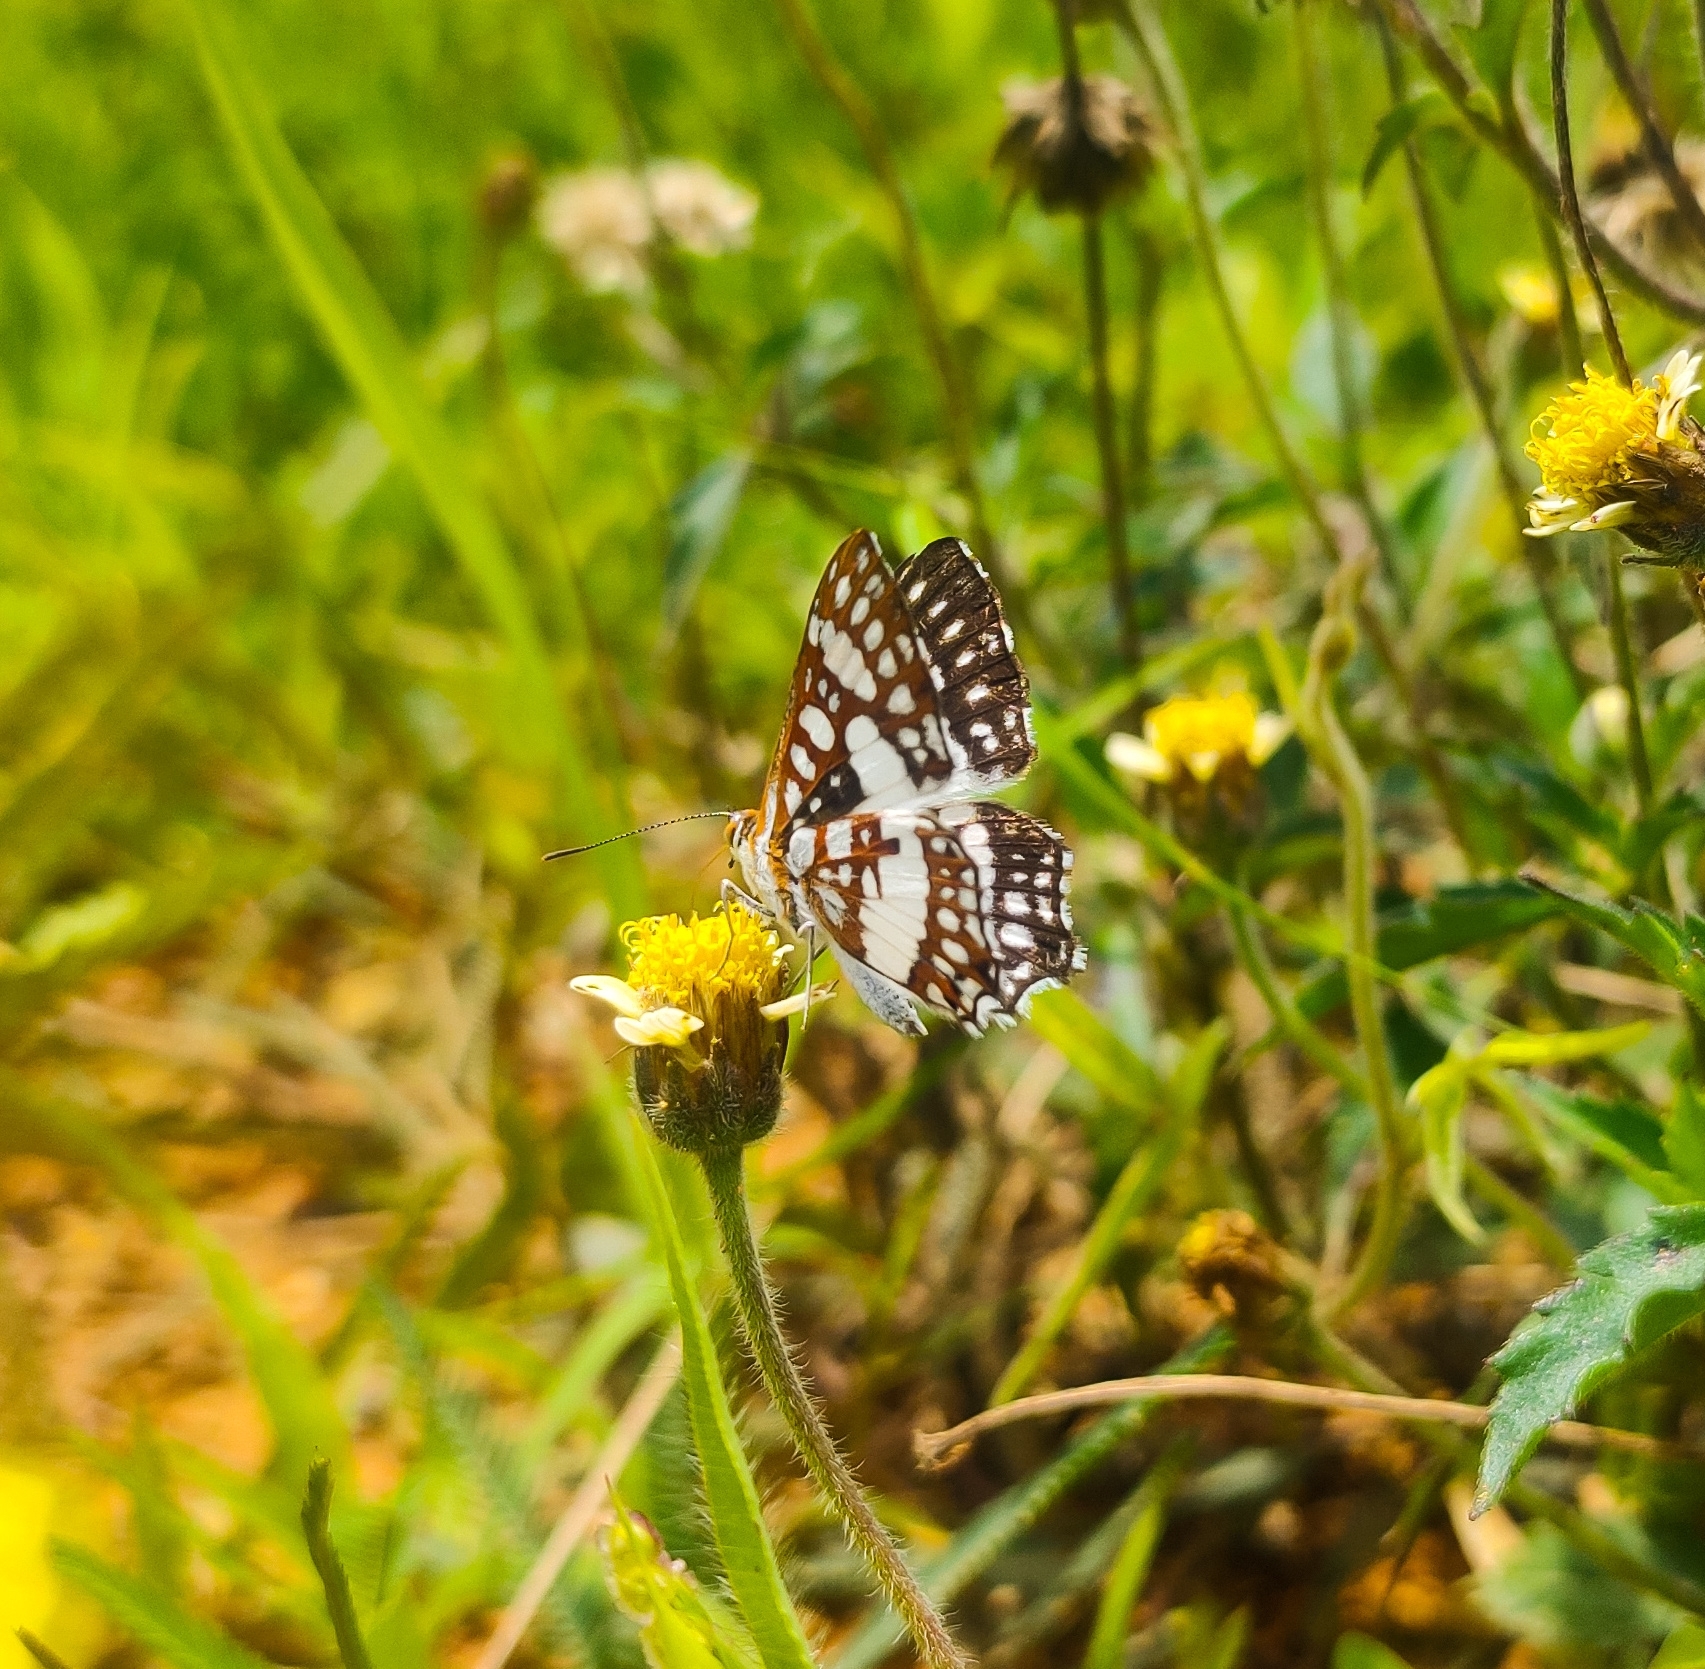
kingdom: Animalia
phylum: Arthropoda
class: Insecta
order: Lepidoptera
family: Riodinidae
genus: Ariconias
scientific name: Ariconias glaphyra
